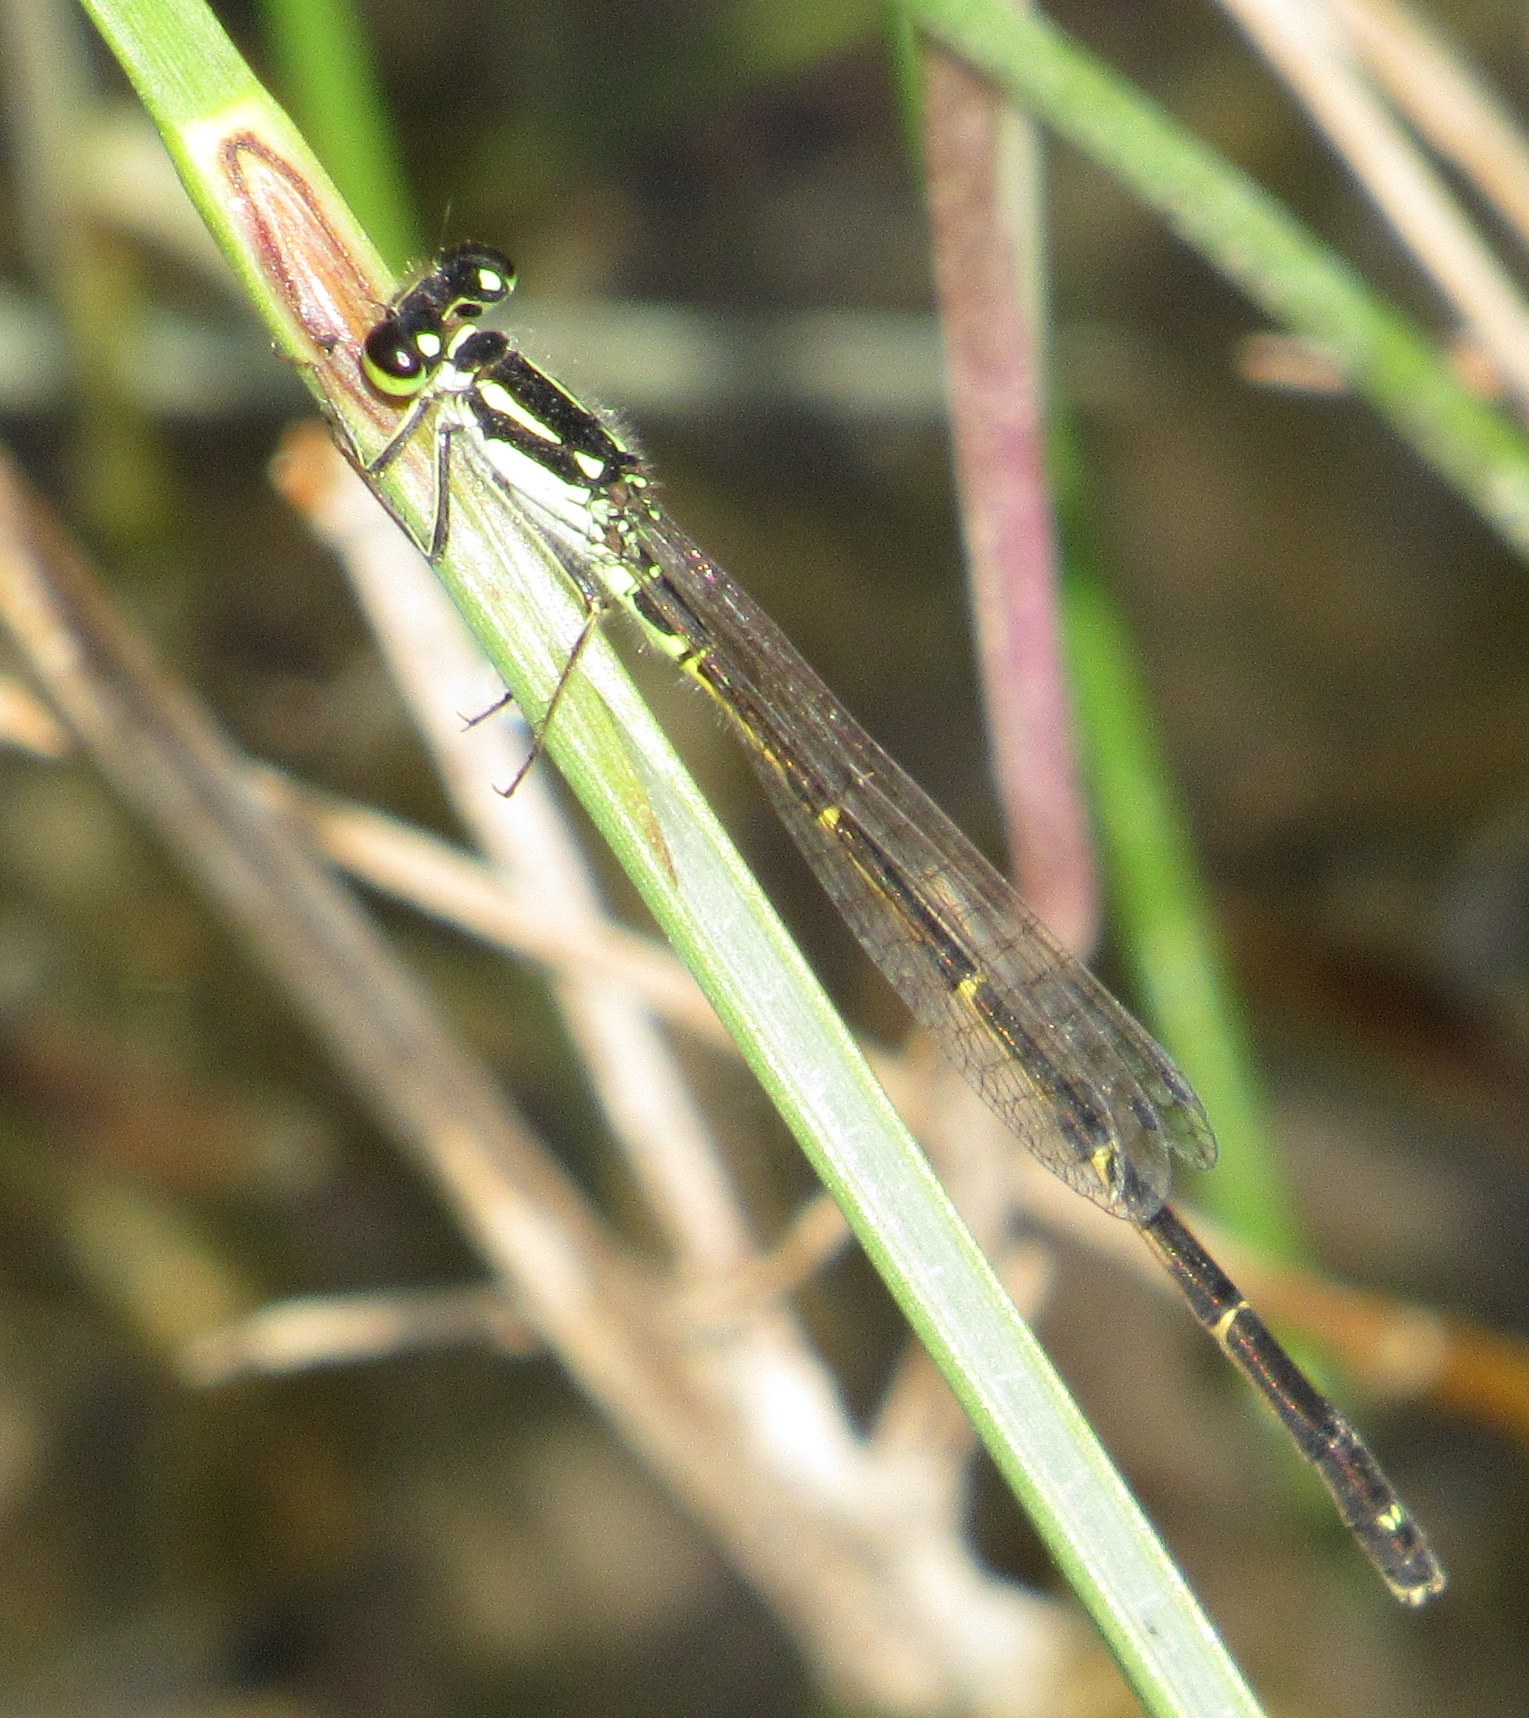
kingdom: Animalia
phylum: Arthropoda
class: Insecta
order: Odonata
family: Coenagrionidae
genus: Ischnura
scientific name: Ischnura posita
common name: Fragile forktail
